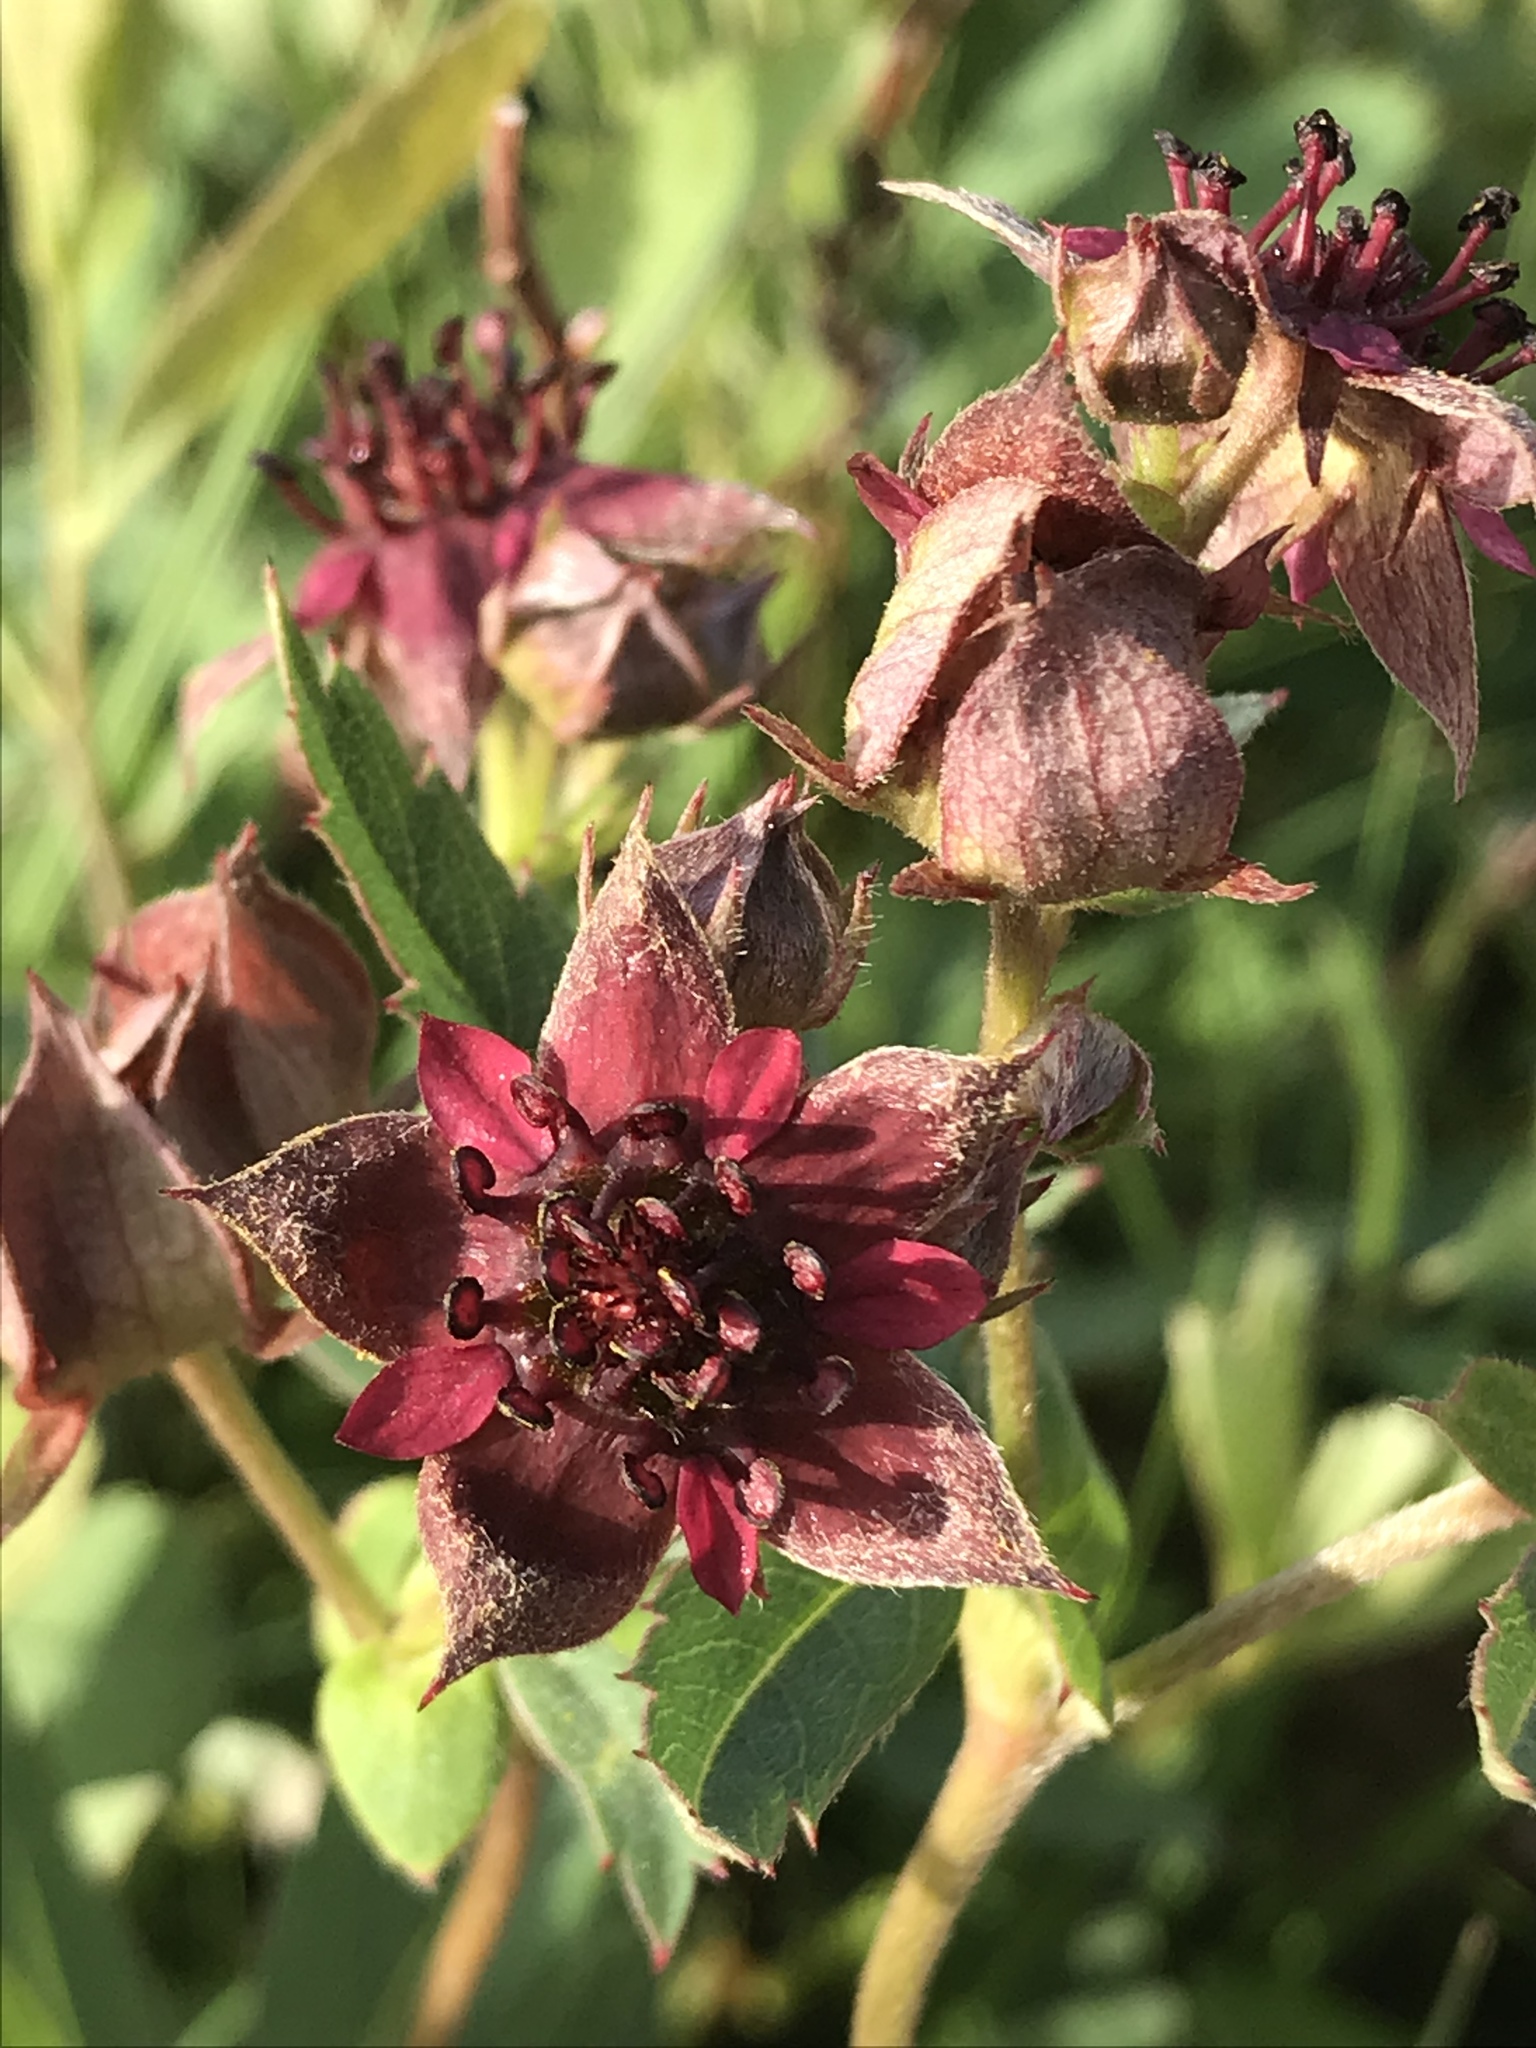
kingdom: Plantae
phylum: Tracheophyta
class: Magnoliopsida
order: Rosales
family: Rosaceae
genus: Comarum
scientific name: Comarum palustre
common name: Marsh cinquefoil
